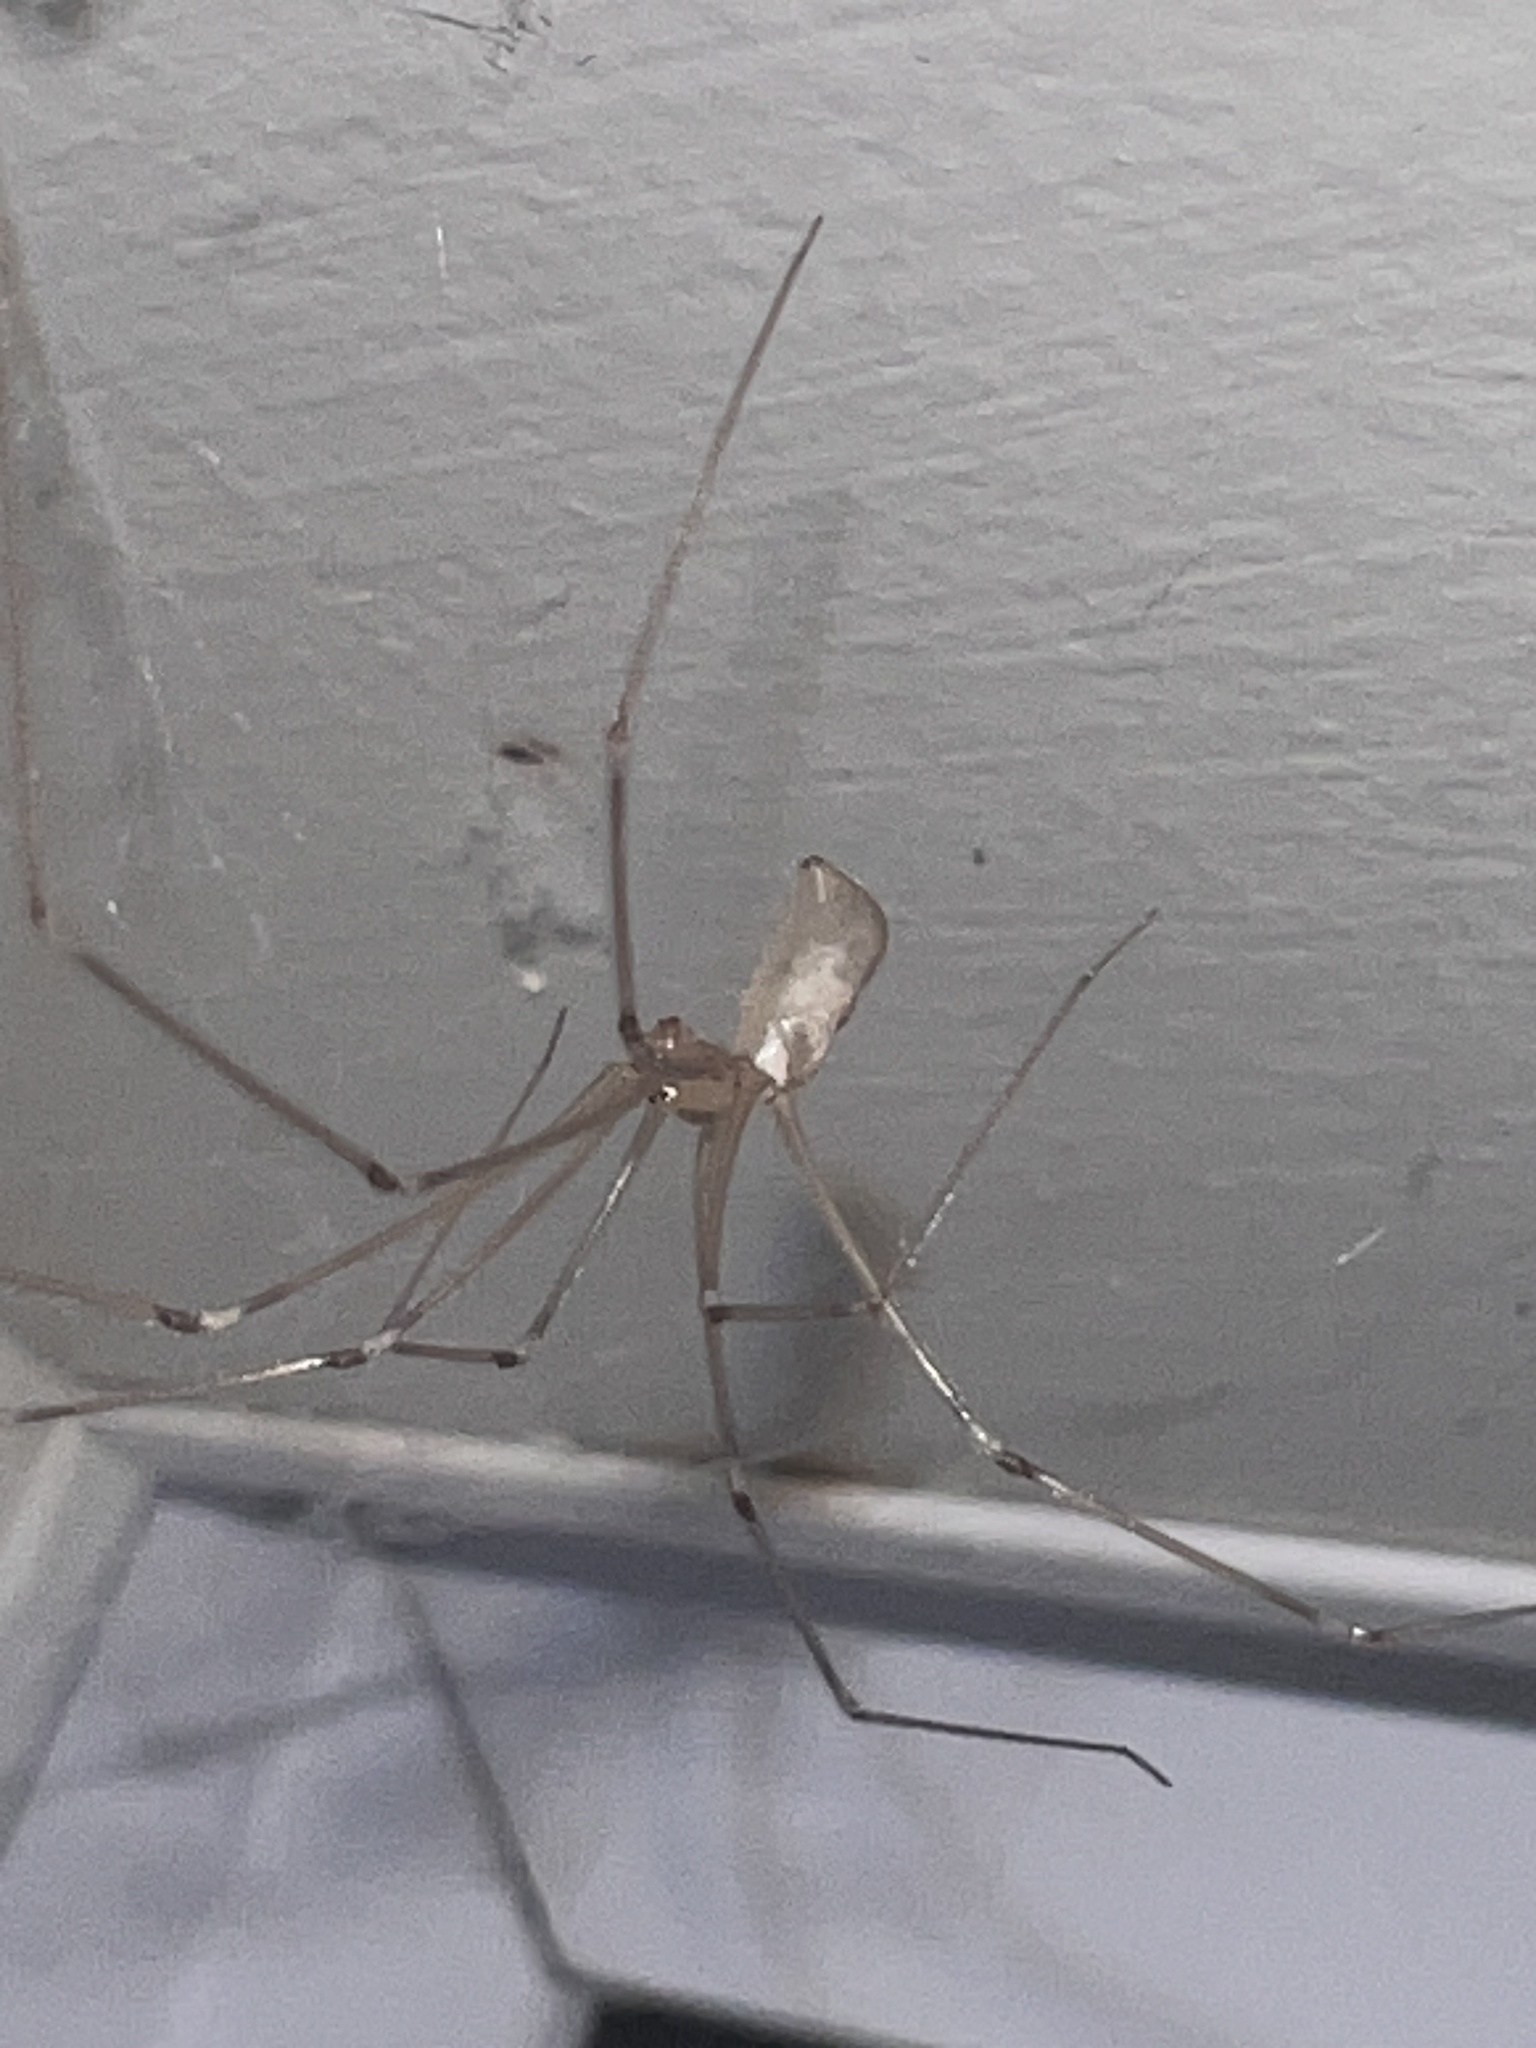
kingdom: Animalia
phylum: Arthropoda
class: Arachnida
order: Araneae
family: Pholcidae
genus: Pholcus
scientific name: Pholcus phalangioides
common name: Longbodied cellar spider
